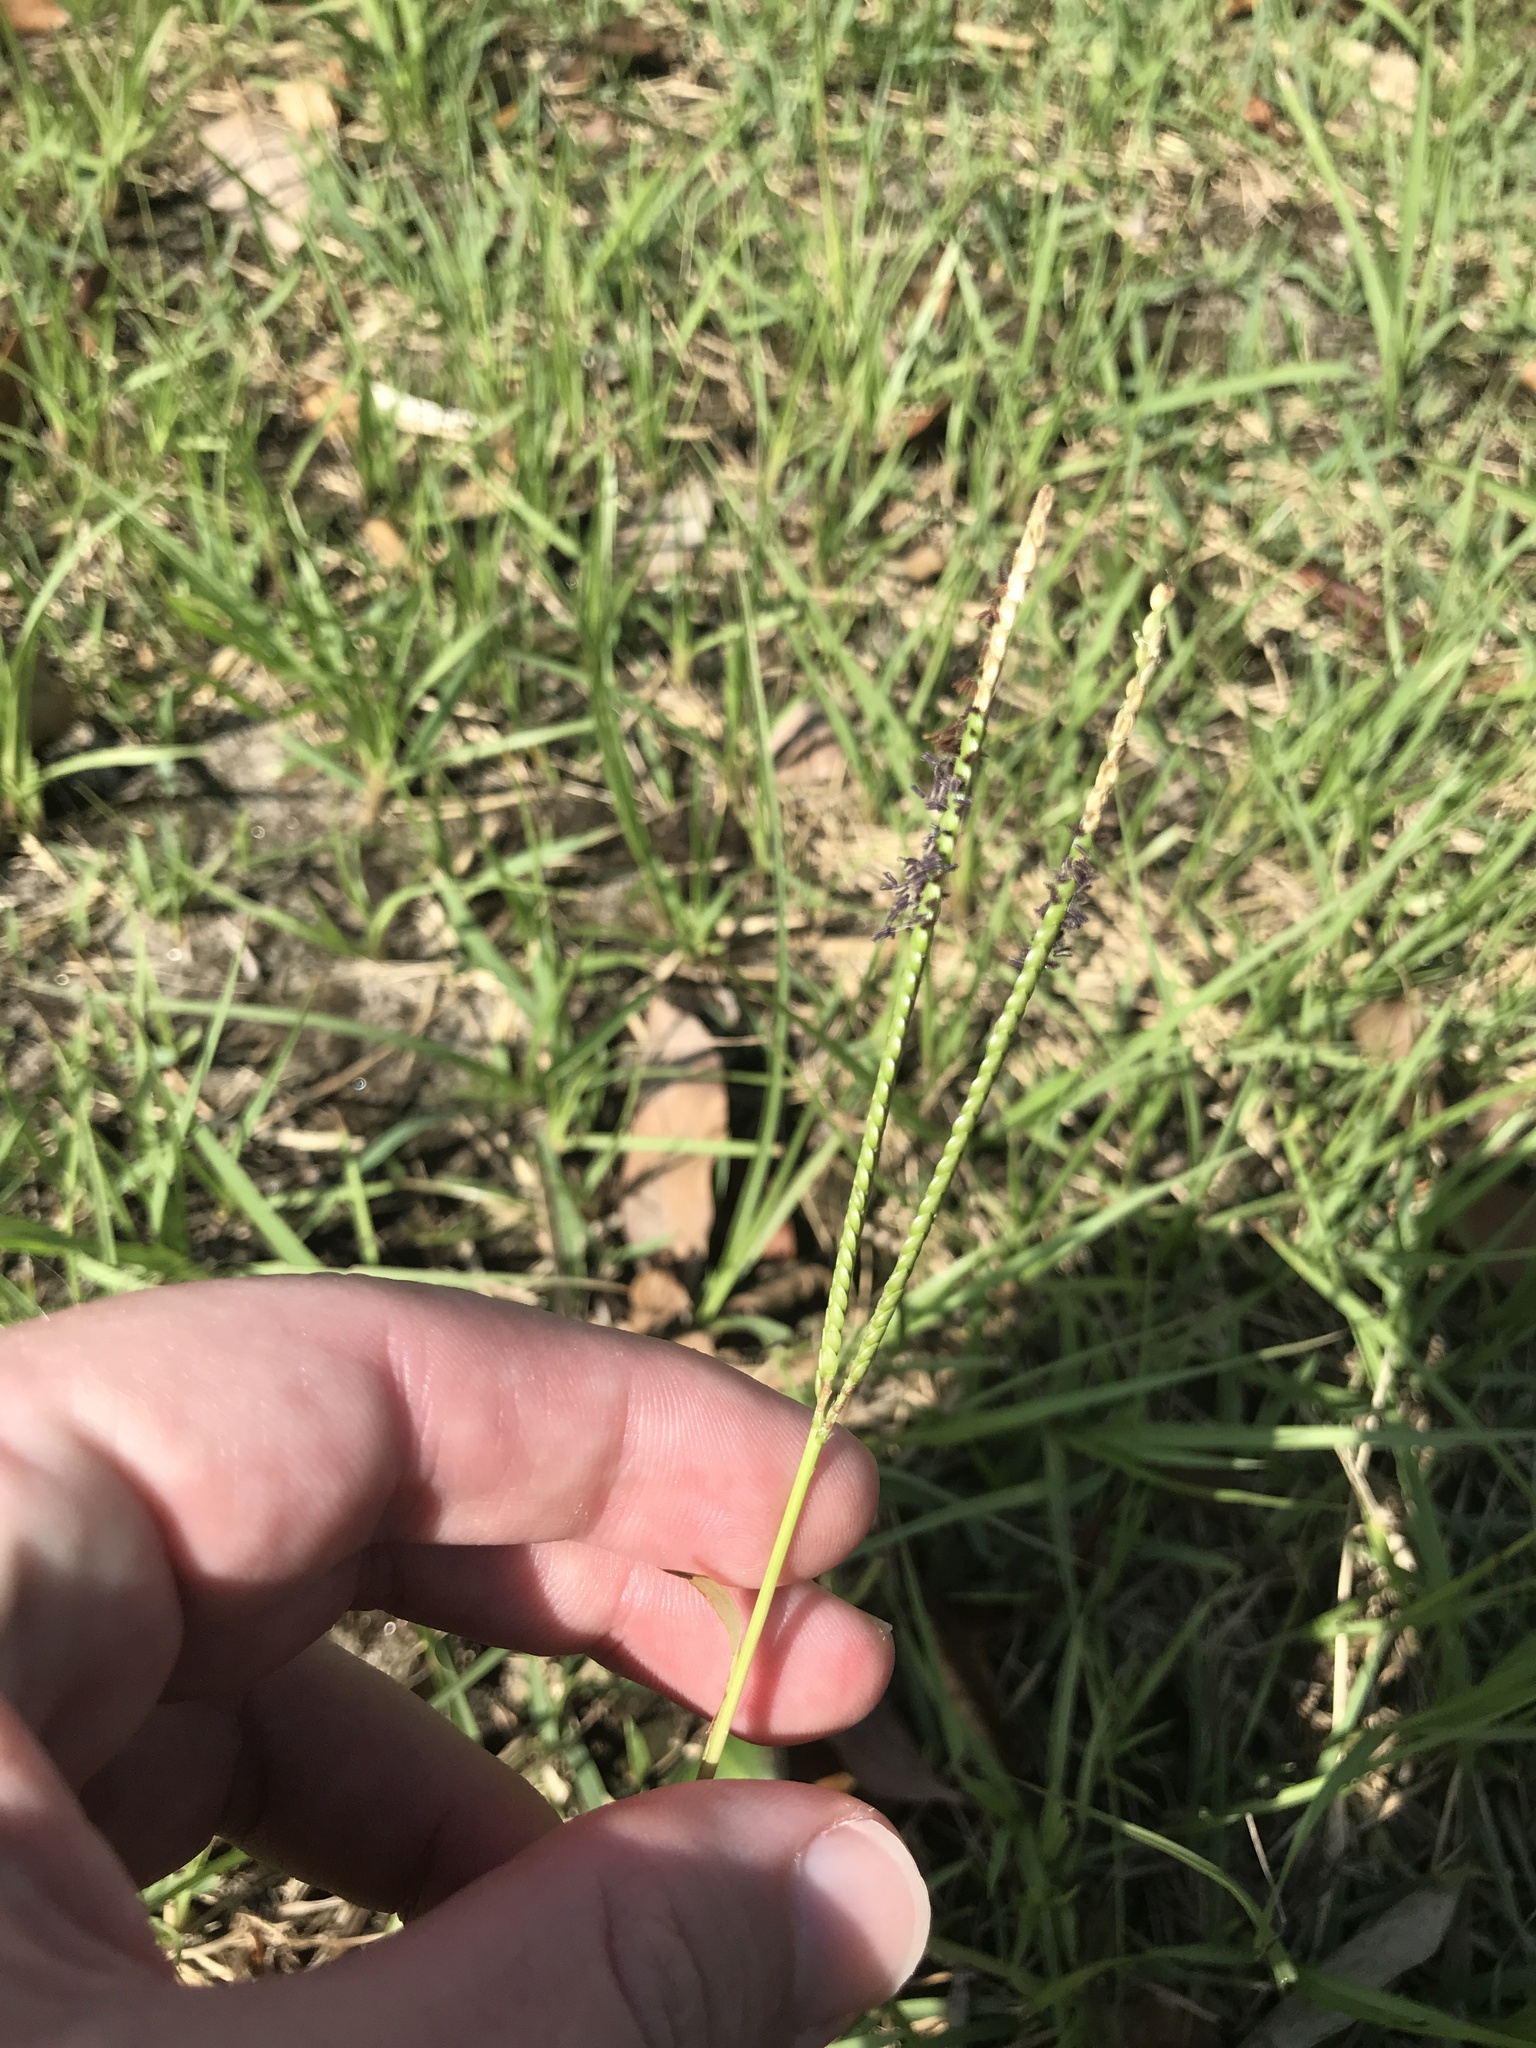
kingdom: Plantae
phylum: Tracheophyta
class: Liliopsida
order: Poales
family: Poaceae
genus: Paspalum
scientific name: Paspalum notatum
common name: Bahiagrass
